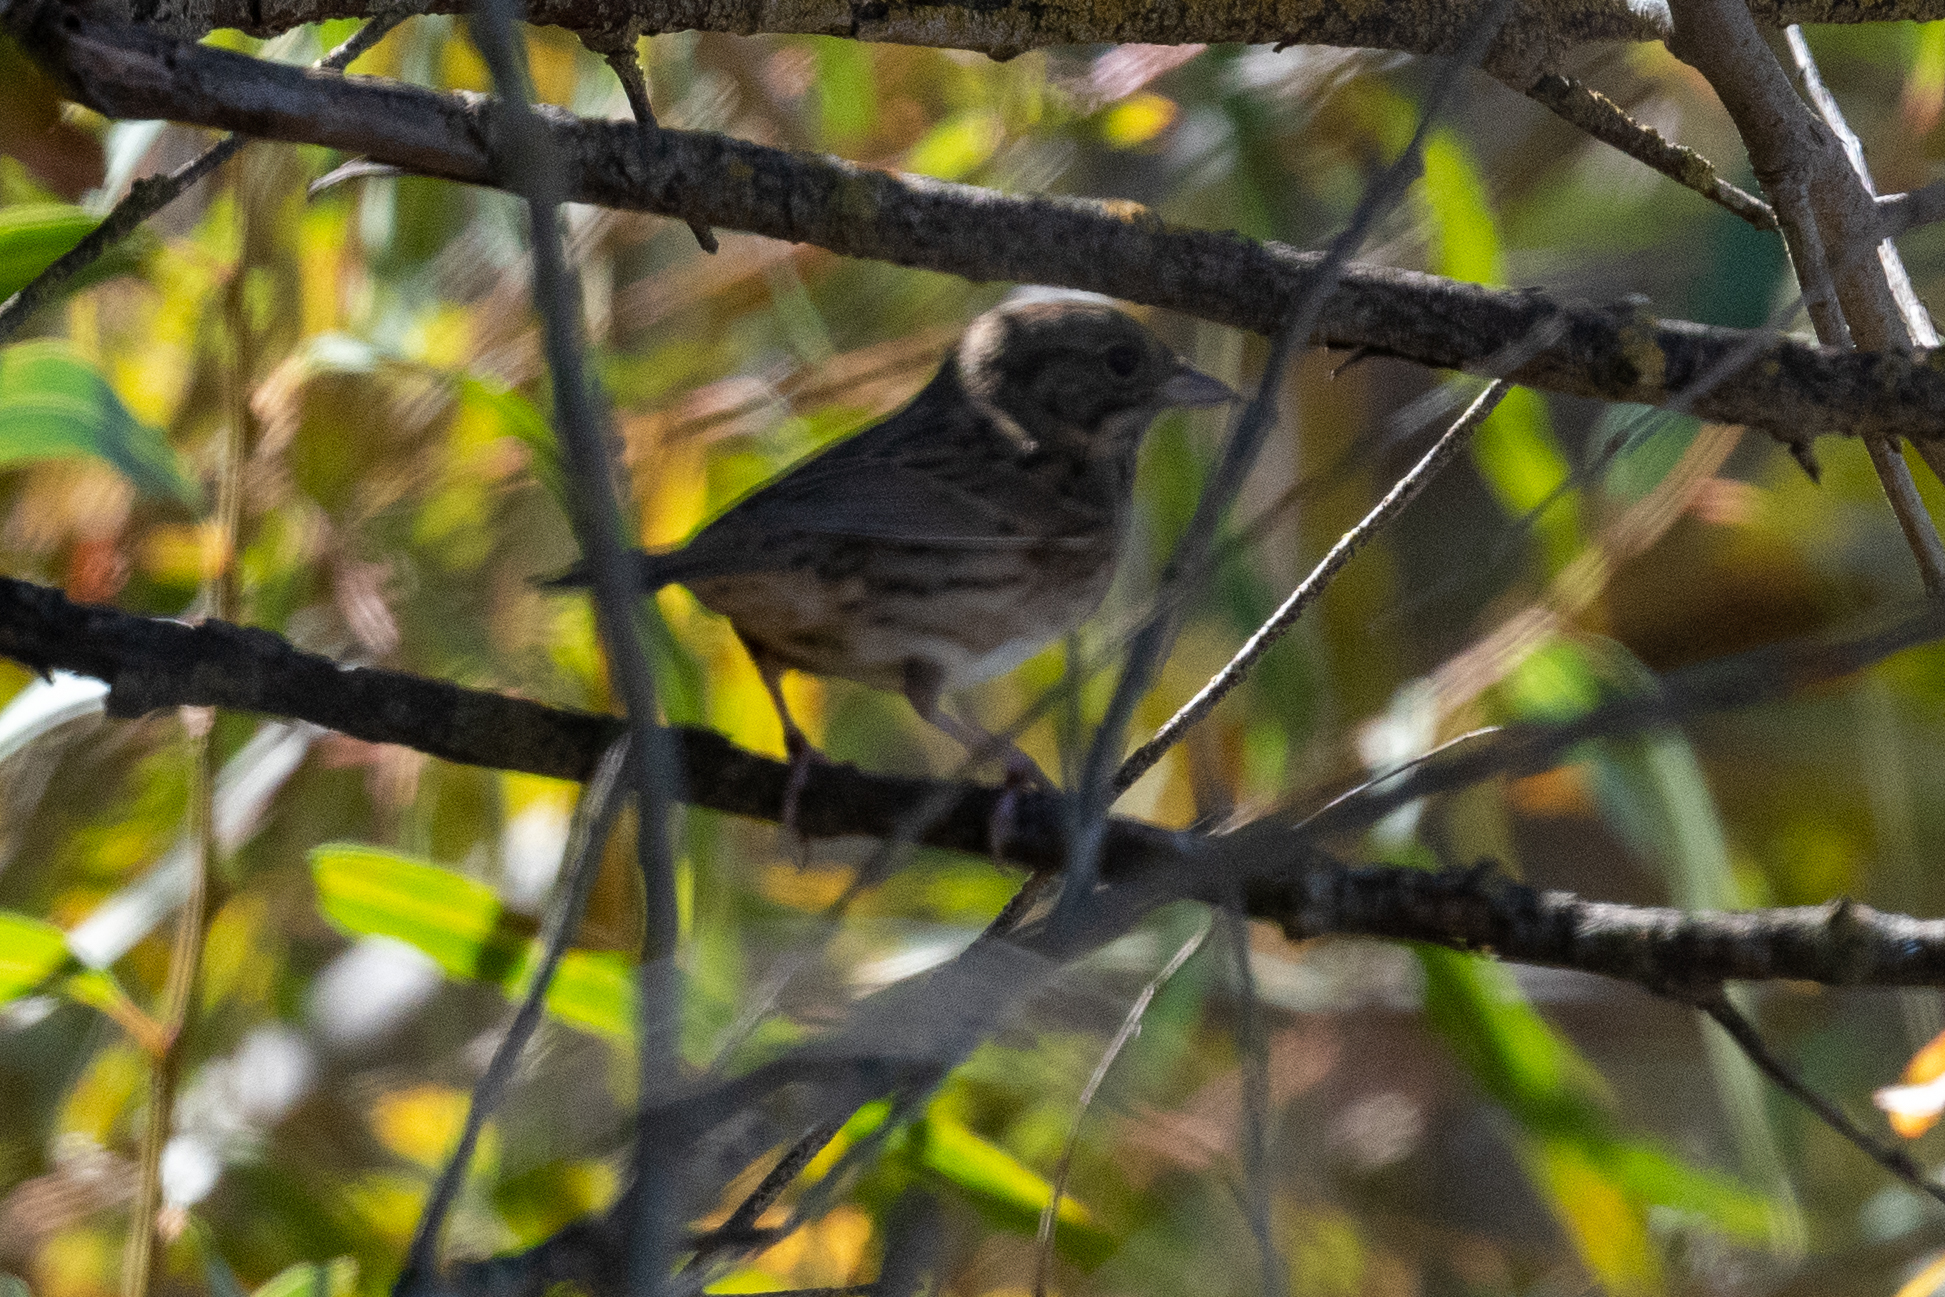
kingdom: Animalia
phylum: Chordata
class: Aves
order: Passeriformes
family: Passerellidae
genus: Melospiza
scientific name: Melospiza lincolnii
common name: Lincoln's sparrow
